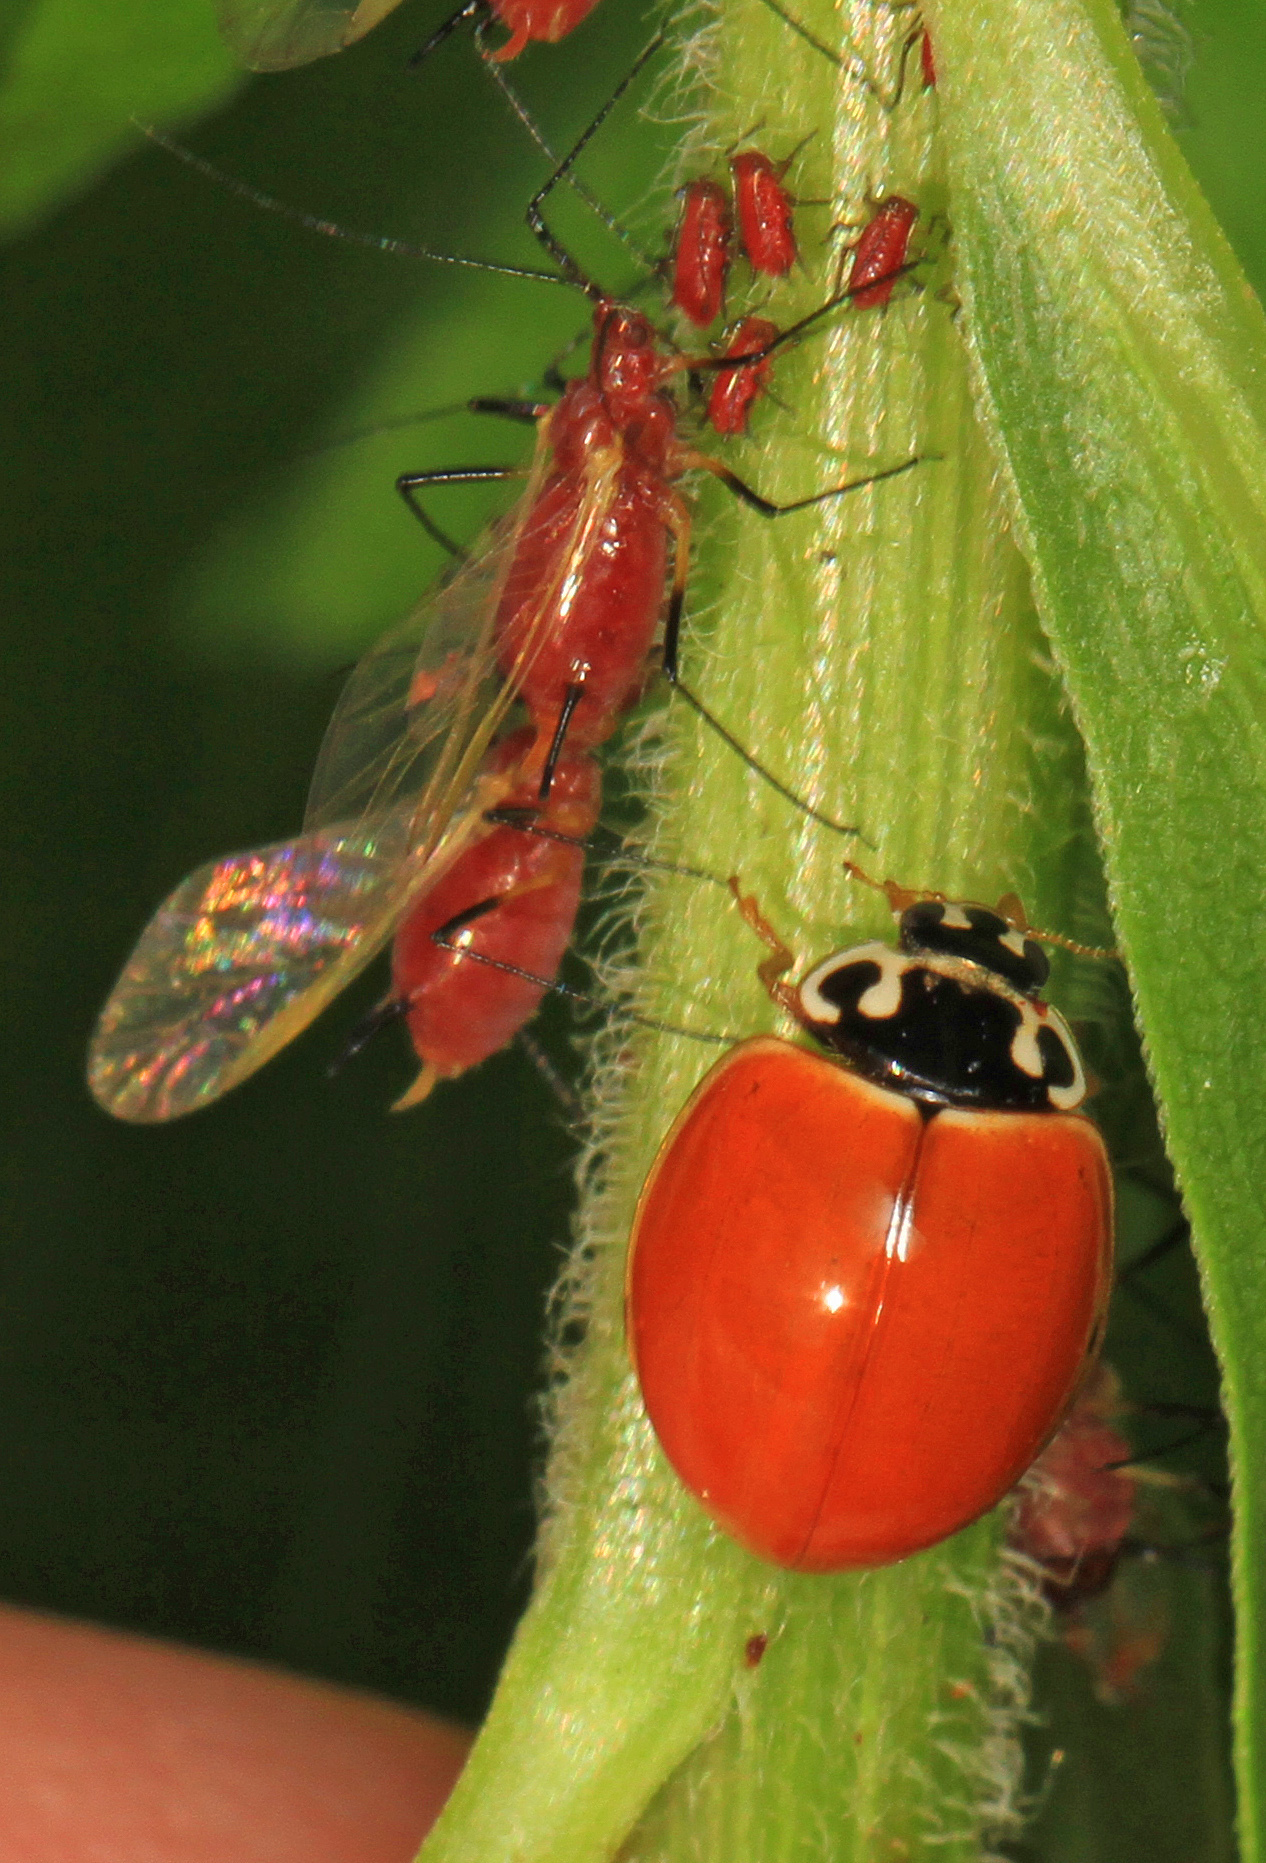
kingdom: Animalia
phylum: Arthropoda
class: Insecta
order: Coleoptera
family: Coccinellidae
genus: Cycloneda
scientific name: Cycloneda munda
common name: Polished lady beetle
